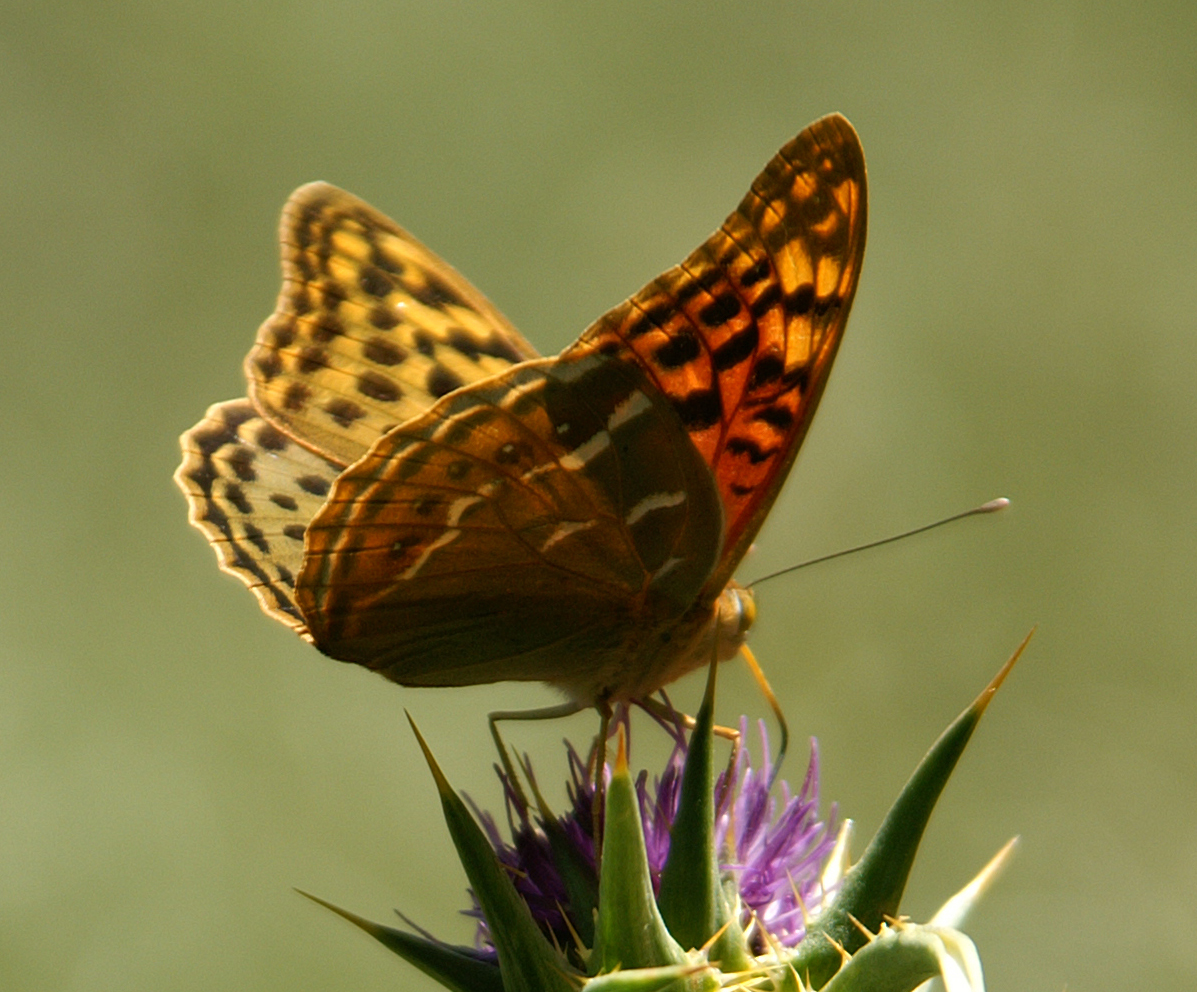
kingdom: Animalia
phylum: Arthropoda
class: Insecta
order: Lepidoptera
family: Nymphalidae
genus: Damora
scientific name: Damora pandora
